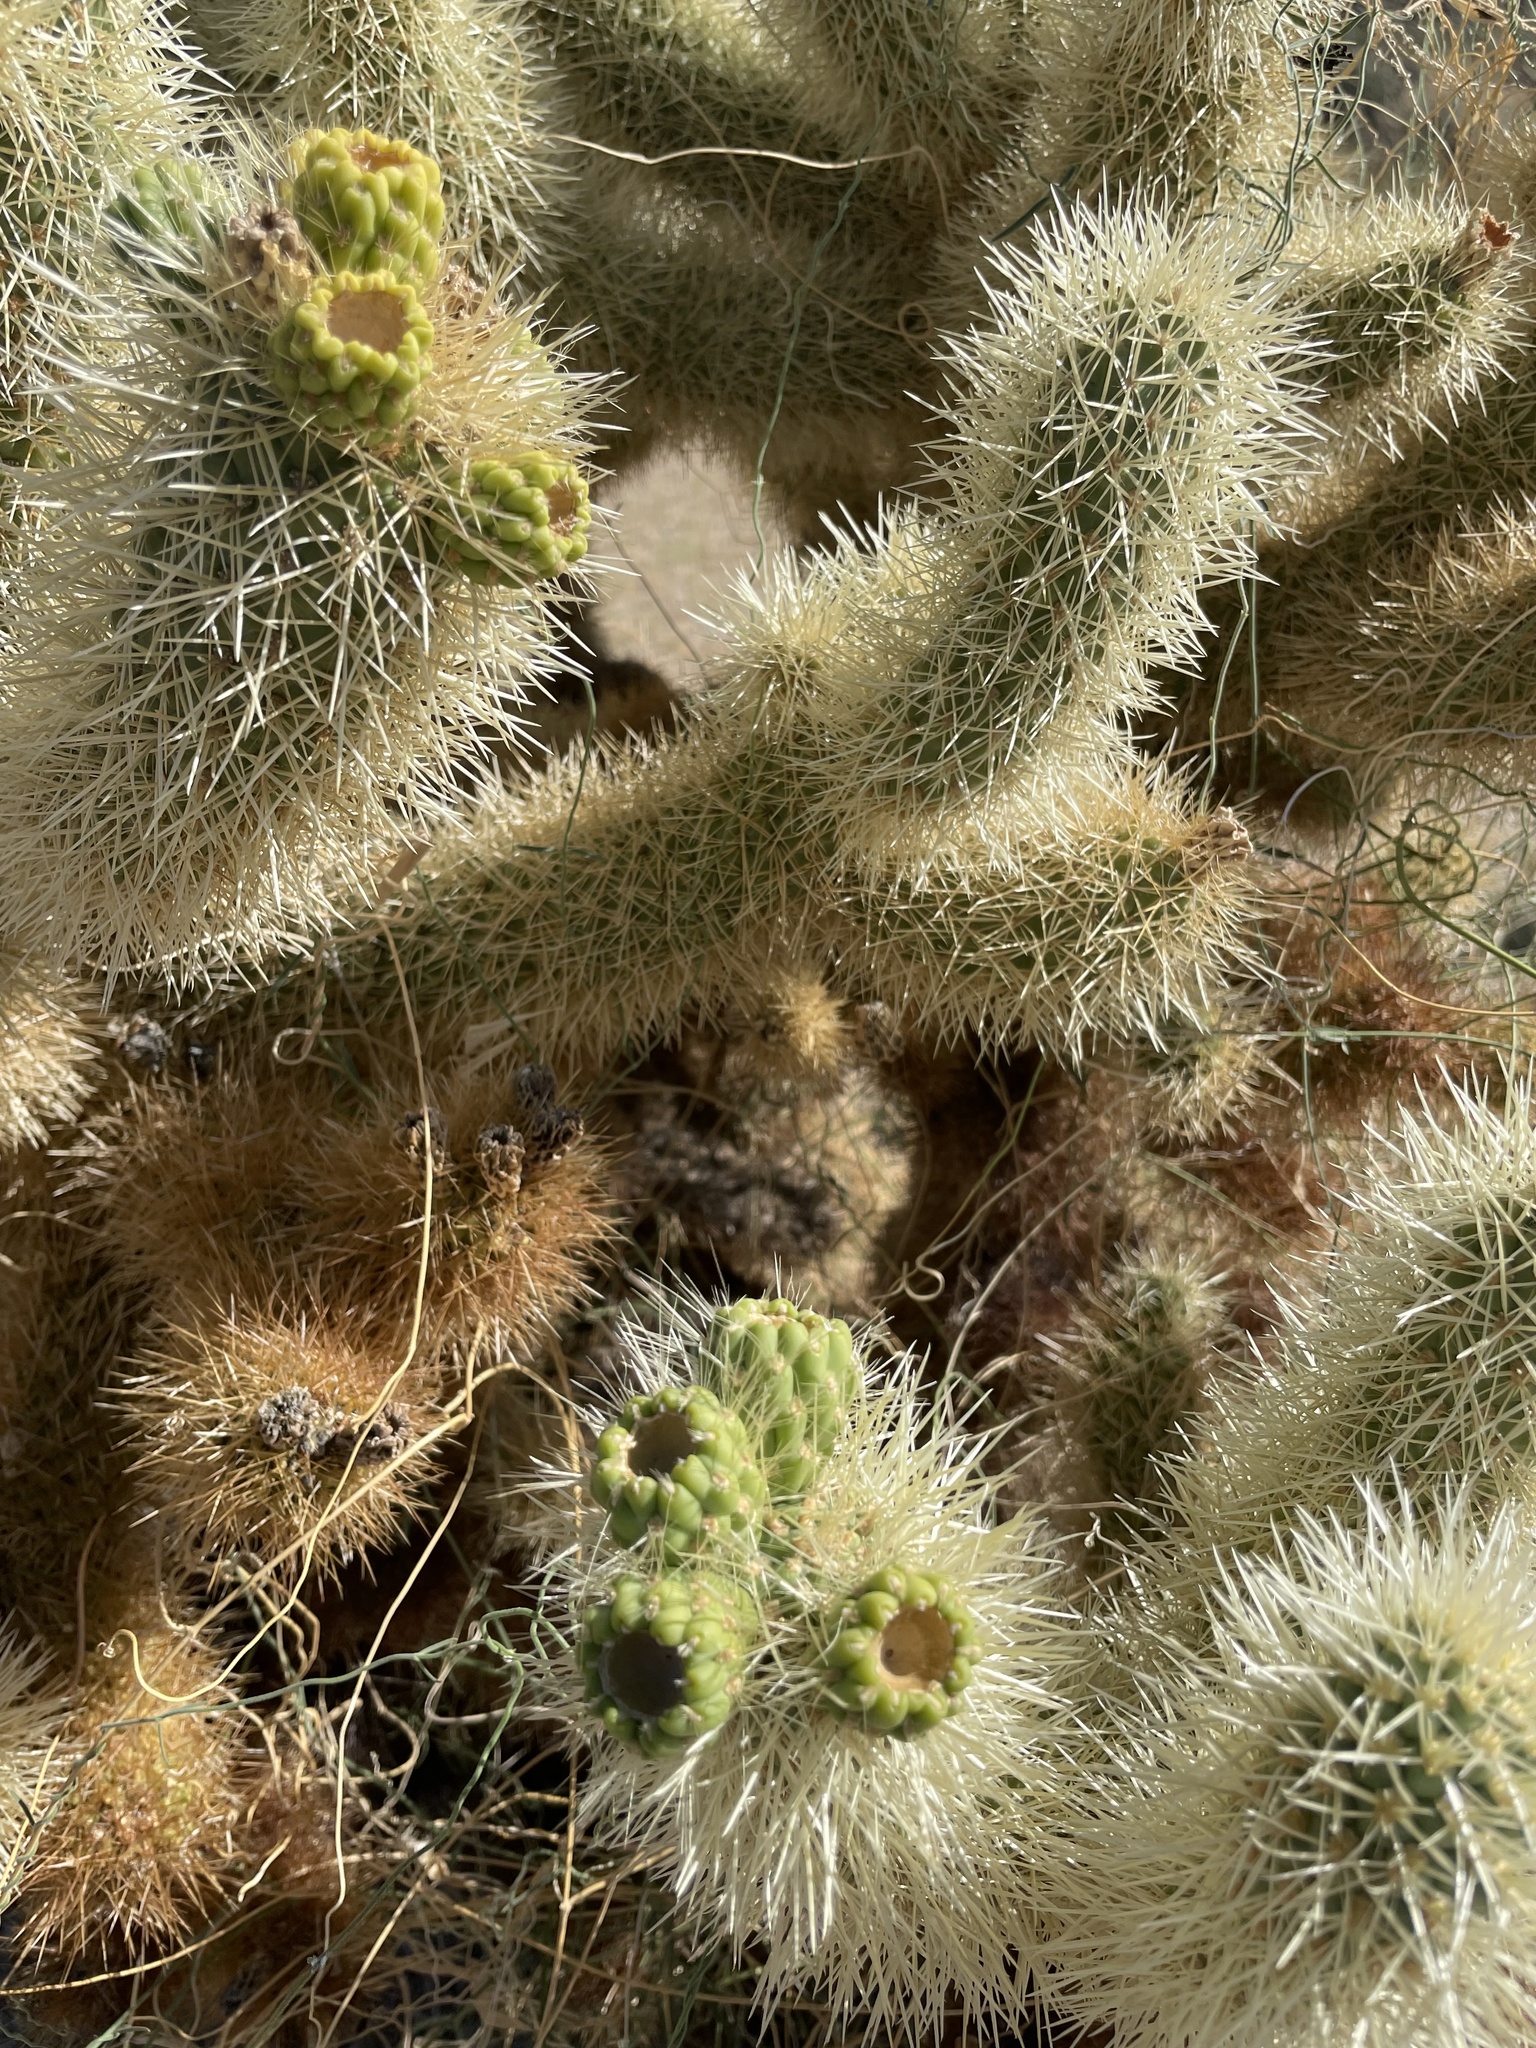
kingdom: Plantae
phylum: Tracheophyta
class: Magnoliopsida
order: Caryophyllales
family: Cactaceae
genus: Cylindropuntia
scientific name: Cylindropuntia fosbergii
